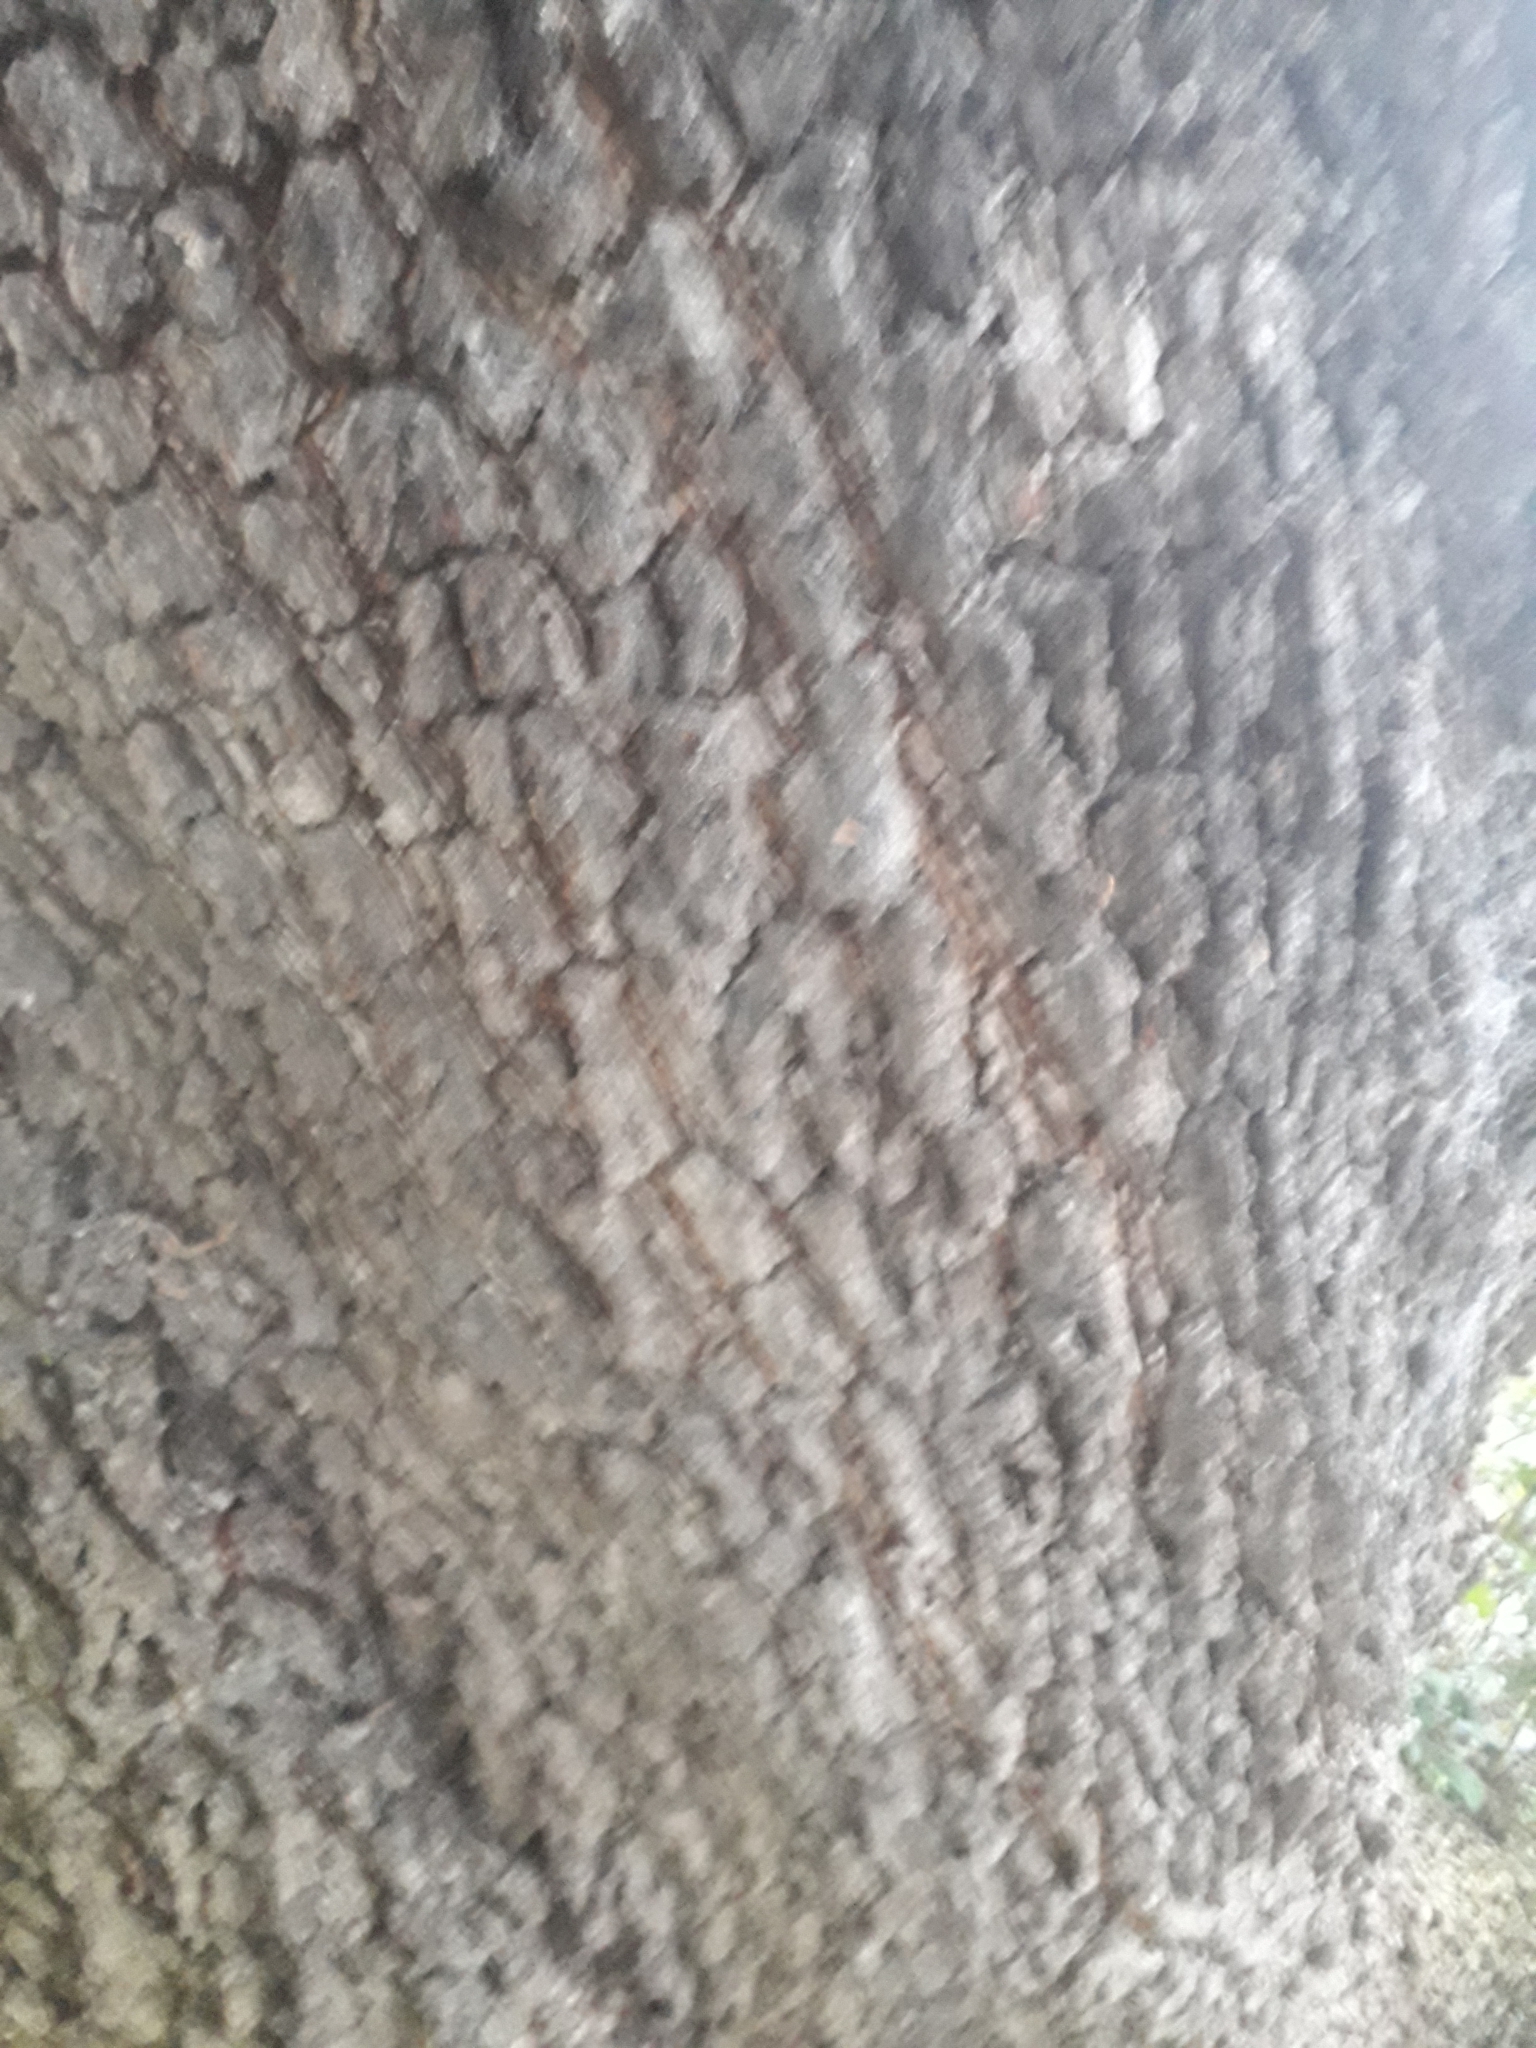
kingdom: Plantae
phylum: Tracheophyta
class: Magnoliopsida
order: Fagales
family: Fagaceae
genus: Quercus
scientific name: Quercus ilex
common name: Evergreen oak
